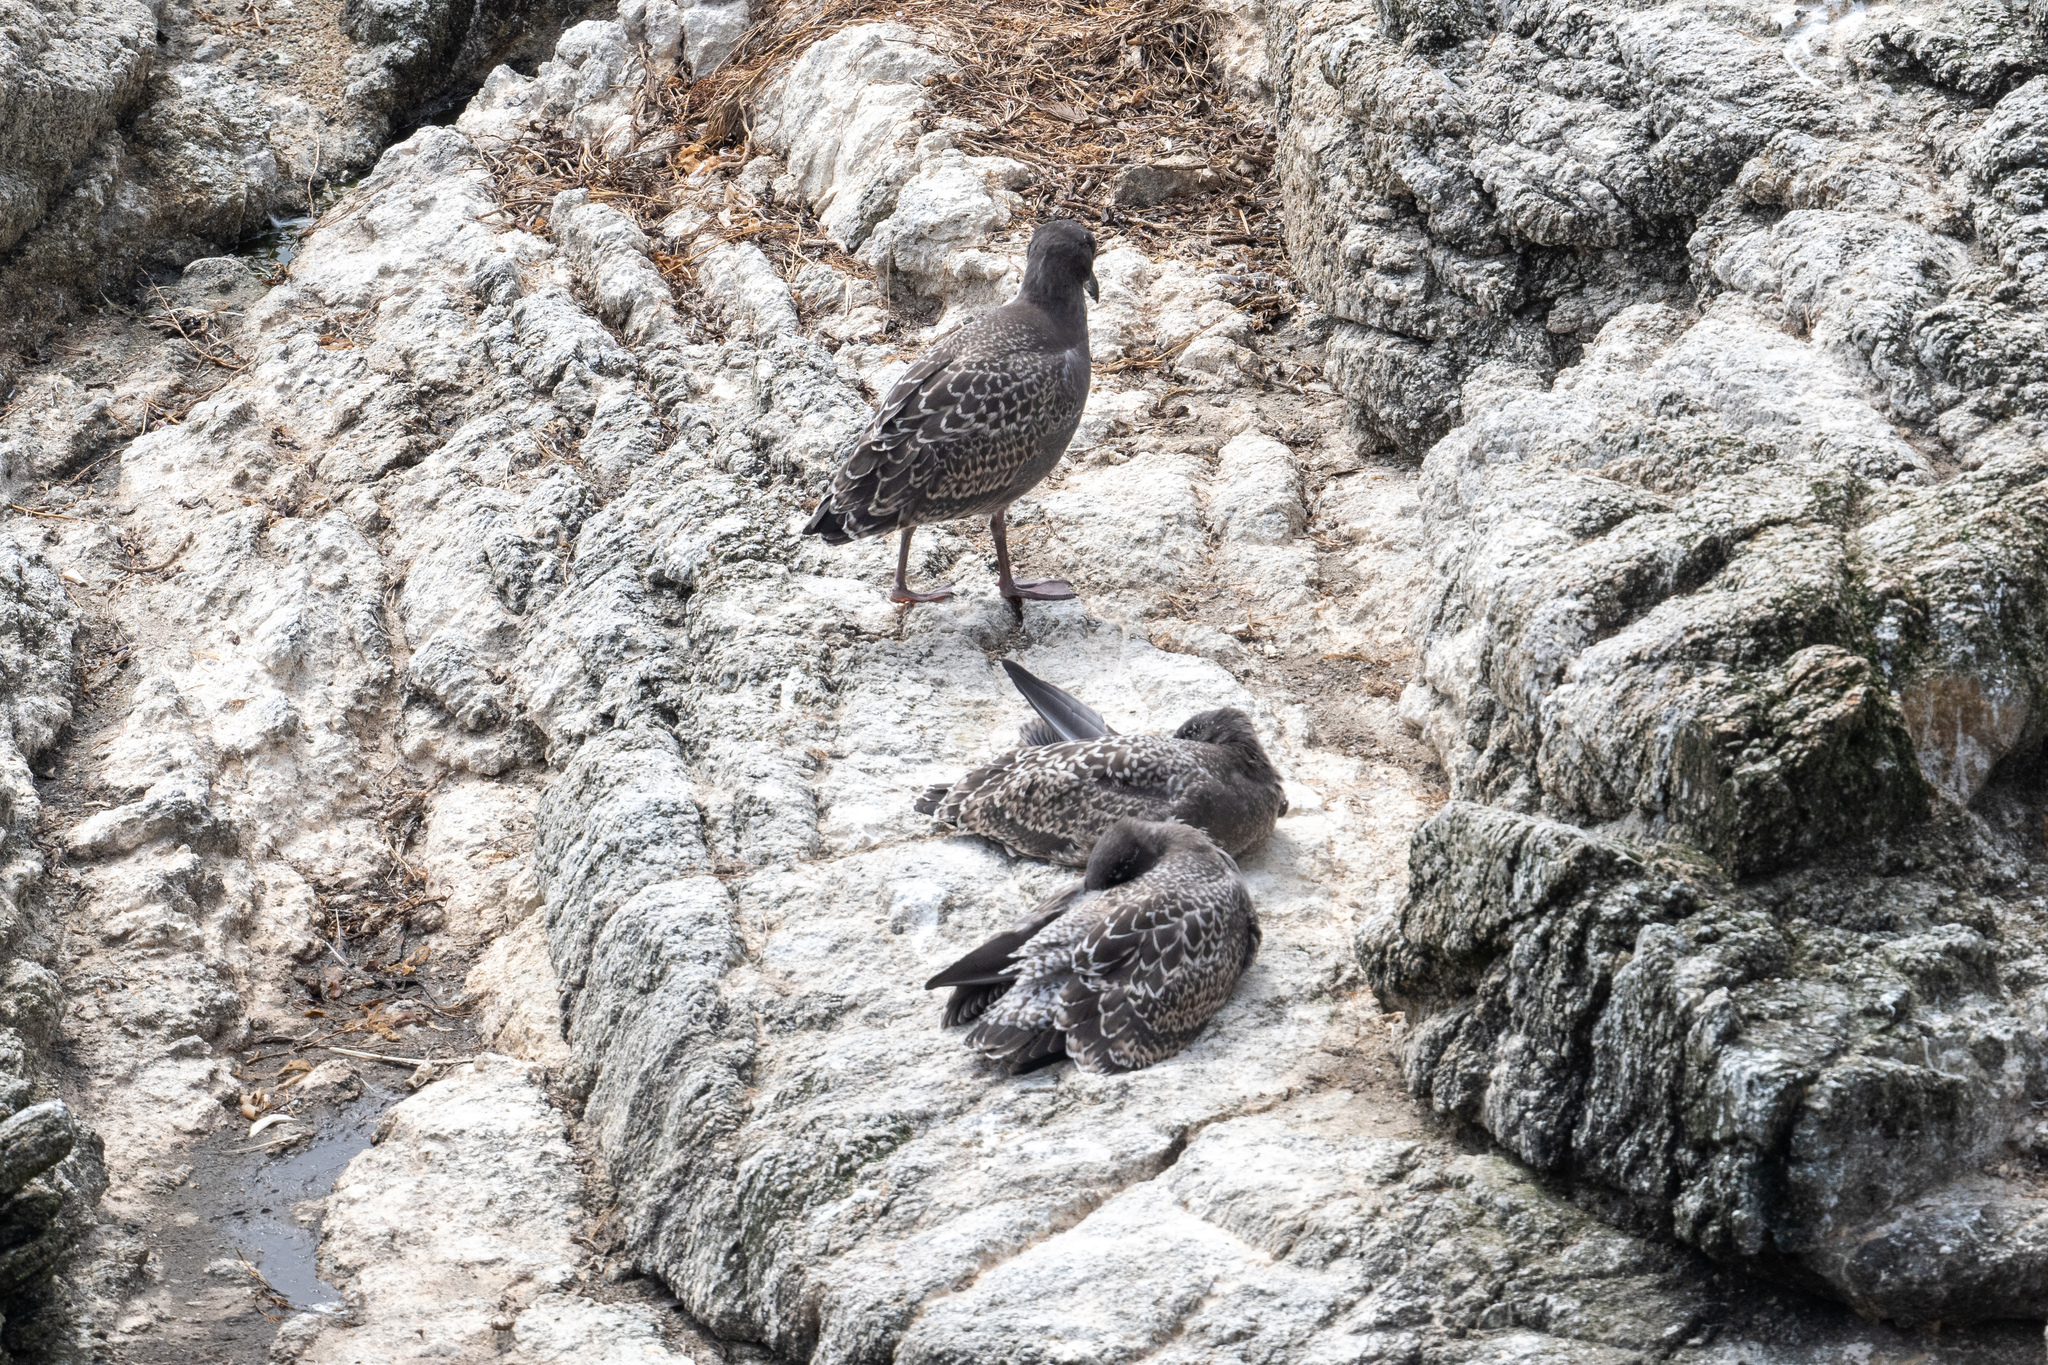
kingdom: Animalia
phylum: Chordata
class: Aves
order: Charadriiformes
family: Laridae
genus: Larus
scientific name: Larus occidentalis
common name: Western gull
